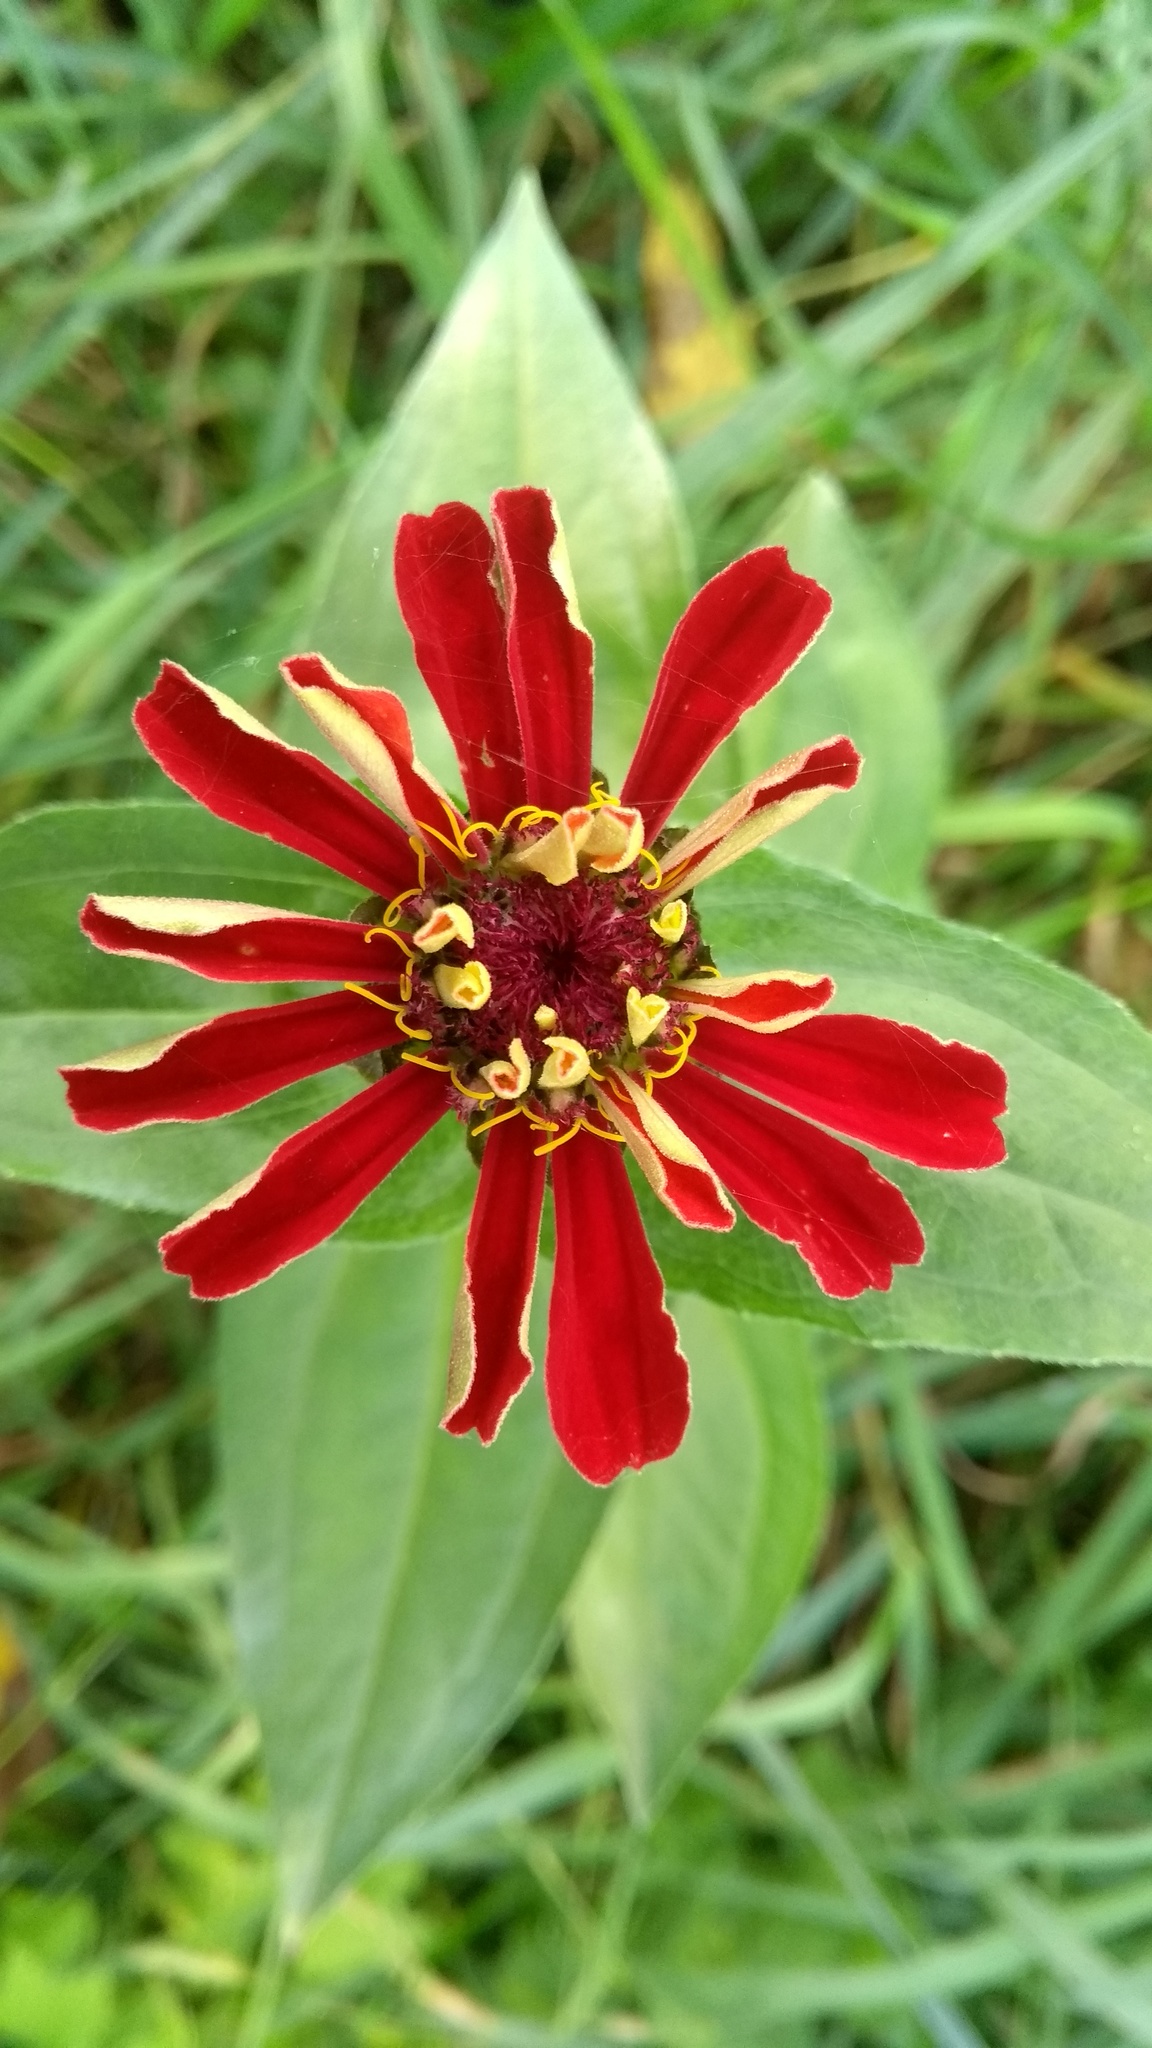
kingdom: Plantae
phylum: Tracheophyta
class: Magnoliopsida
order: Asterales
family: Asteraceae
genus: Zinnia
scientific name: Zinnia elegans
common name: Youth-and-age
